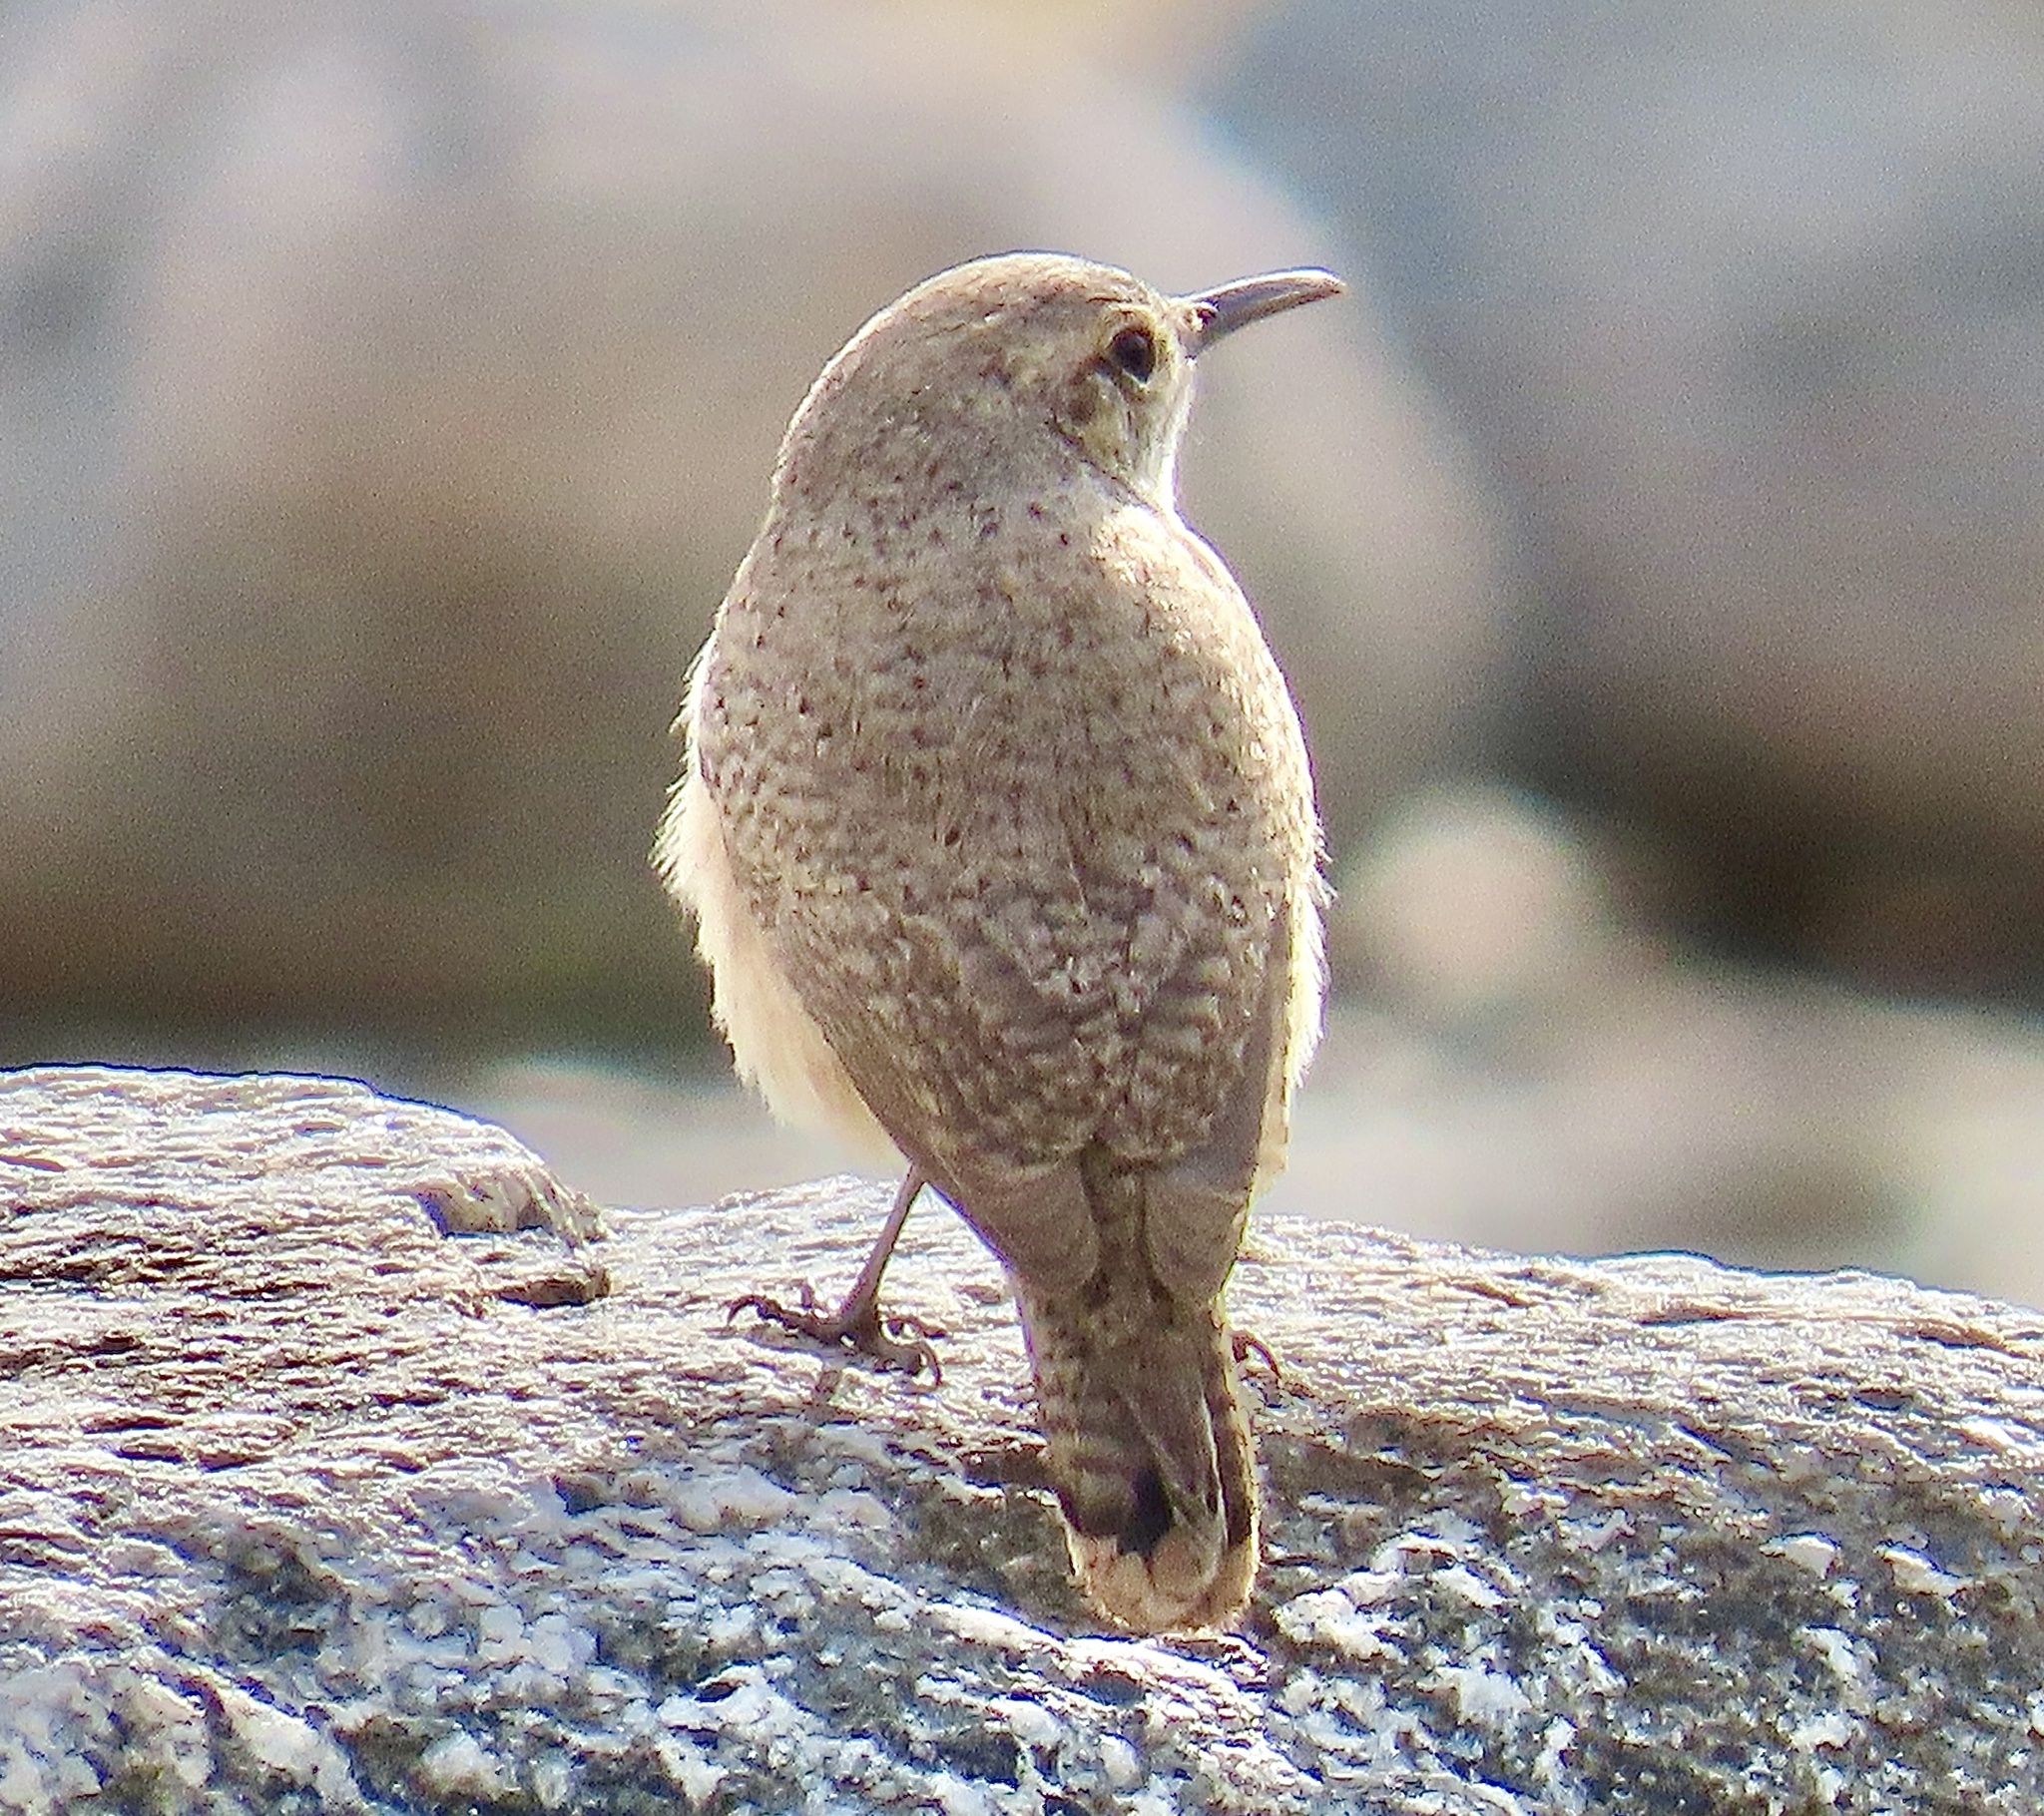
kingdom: Animalia
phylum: Chordata
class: Aves
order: Passeriformes
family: Troglodytidae
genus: Salpinctes
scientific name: Salpinctes obsoletus
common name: Rock wren
